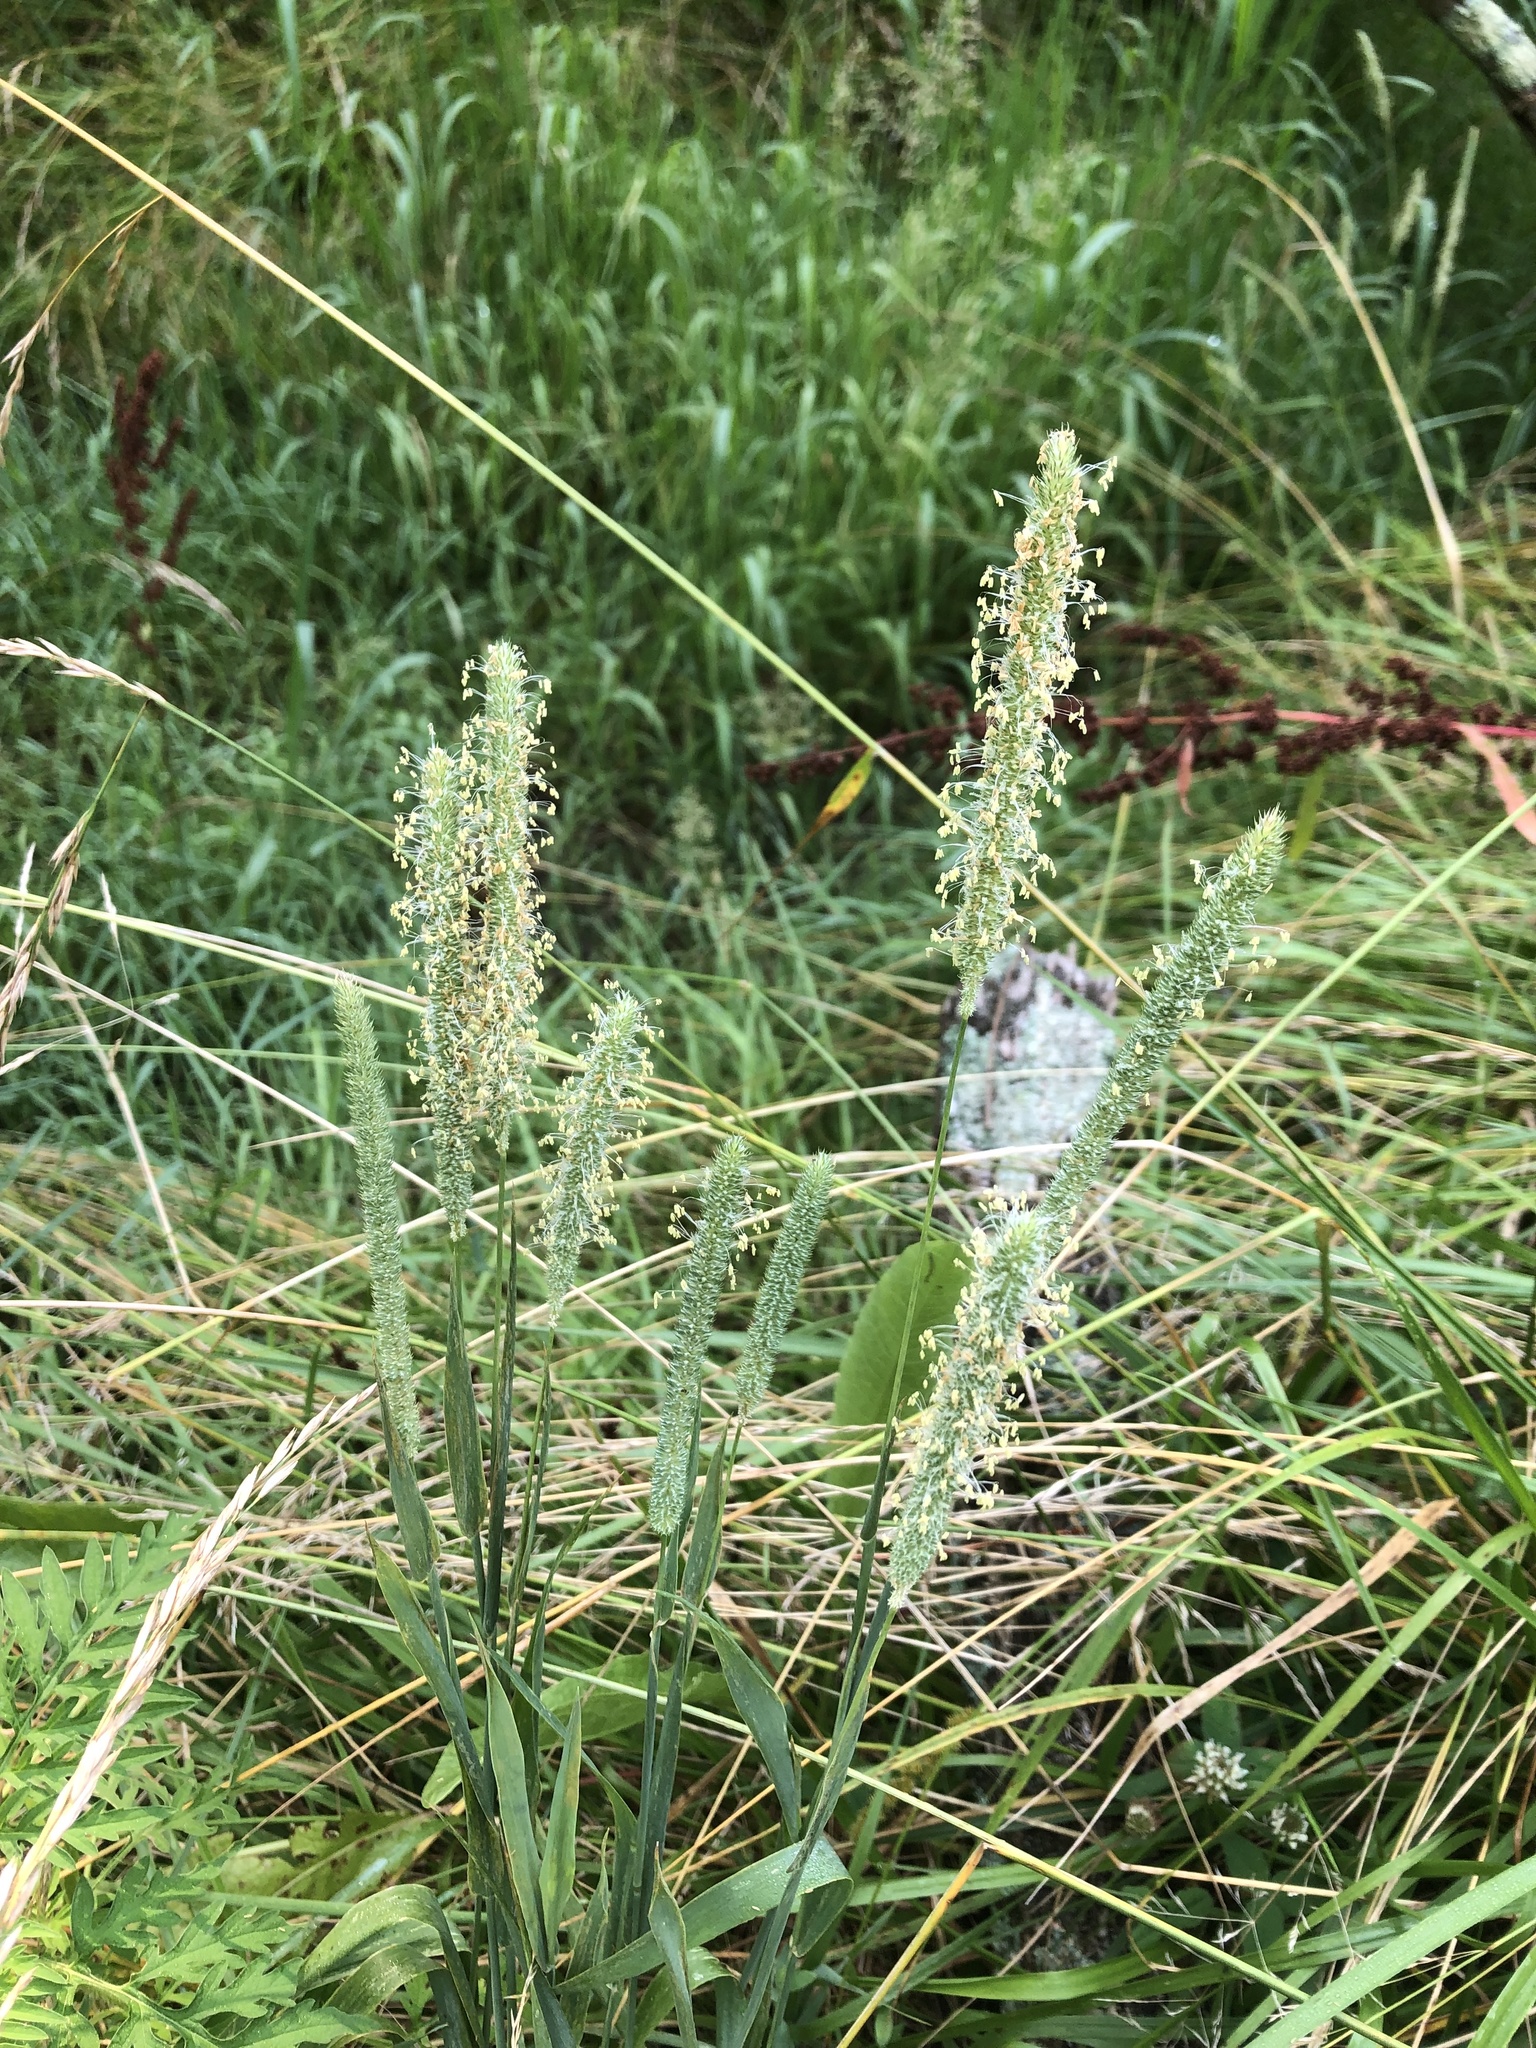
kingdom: Plantae
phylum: Tracheophyta
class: Liliopsida
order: Poales
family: Poaceae
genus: Phleum
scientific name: Phleum pratense
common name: Timothy grass
